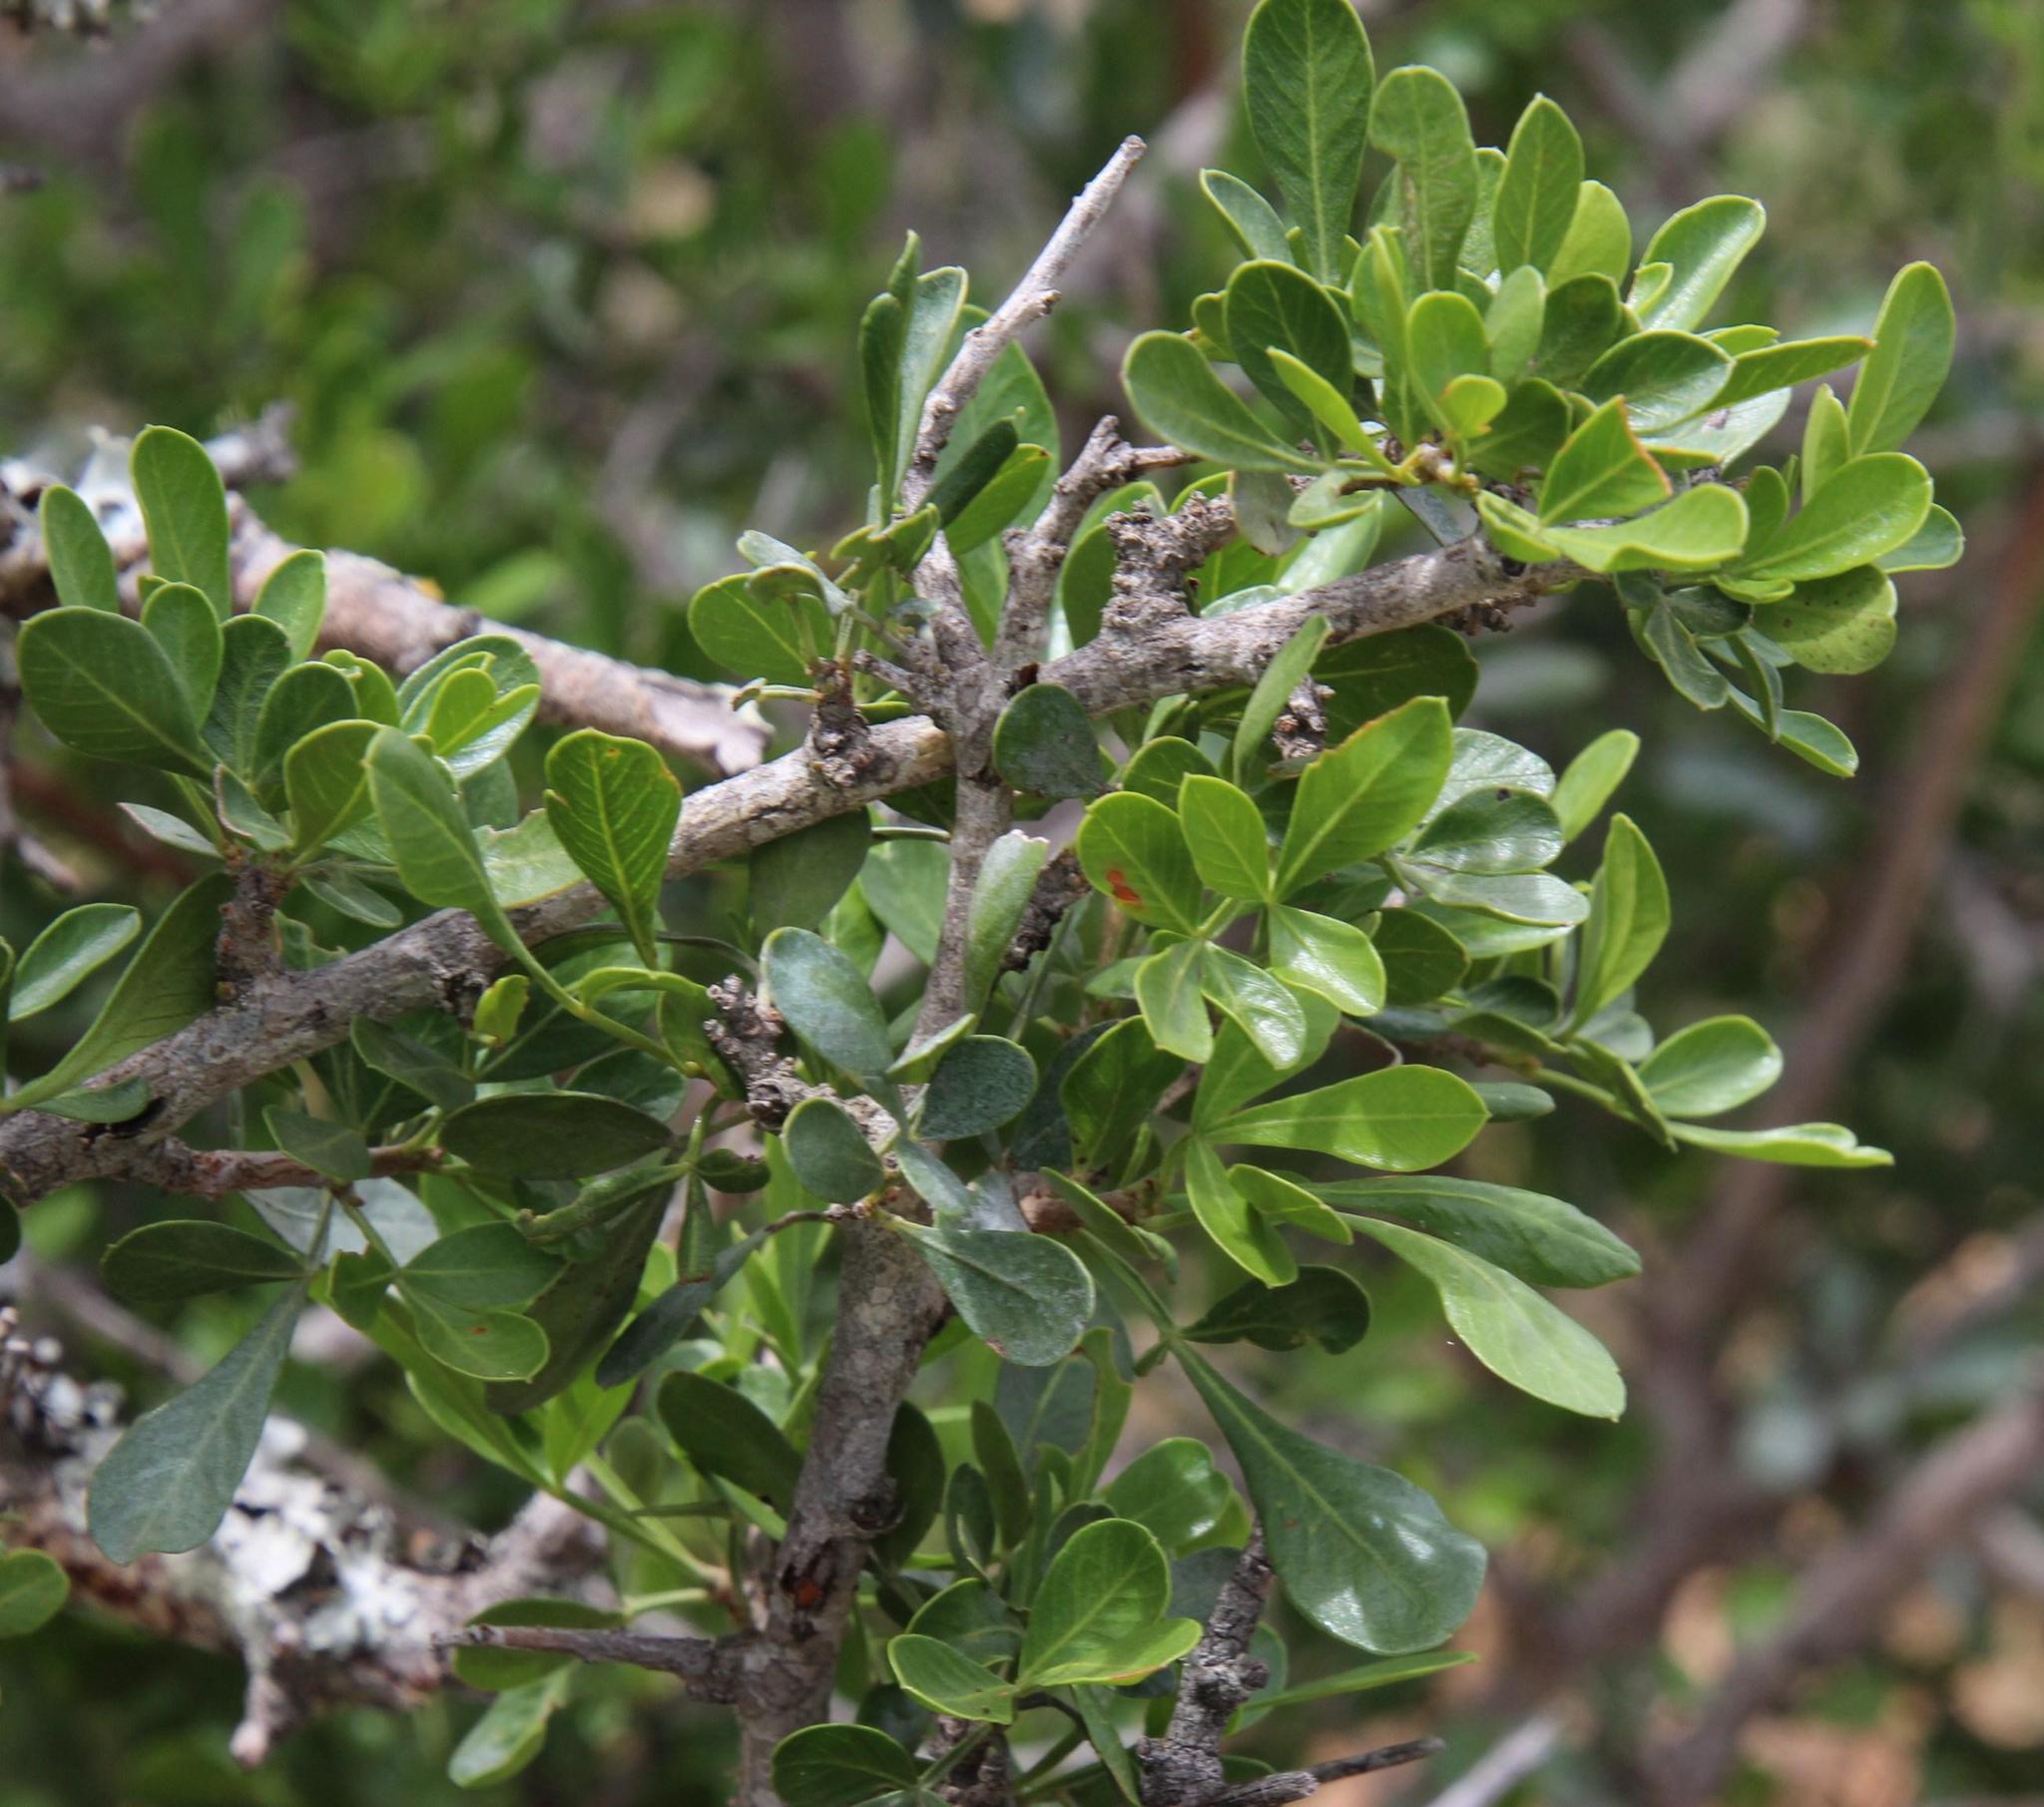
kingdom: Plantae
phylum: Tracheophyta
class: Magnoliopsida
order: Sapindales
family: Anacardiaceae
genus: Searsia
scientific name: Searsia longispina
